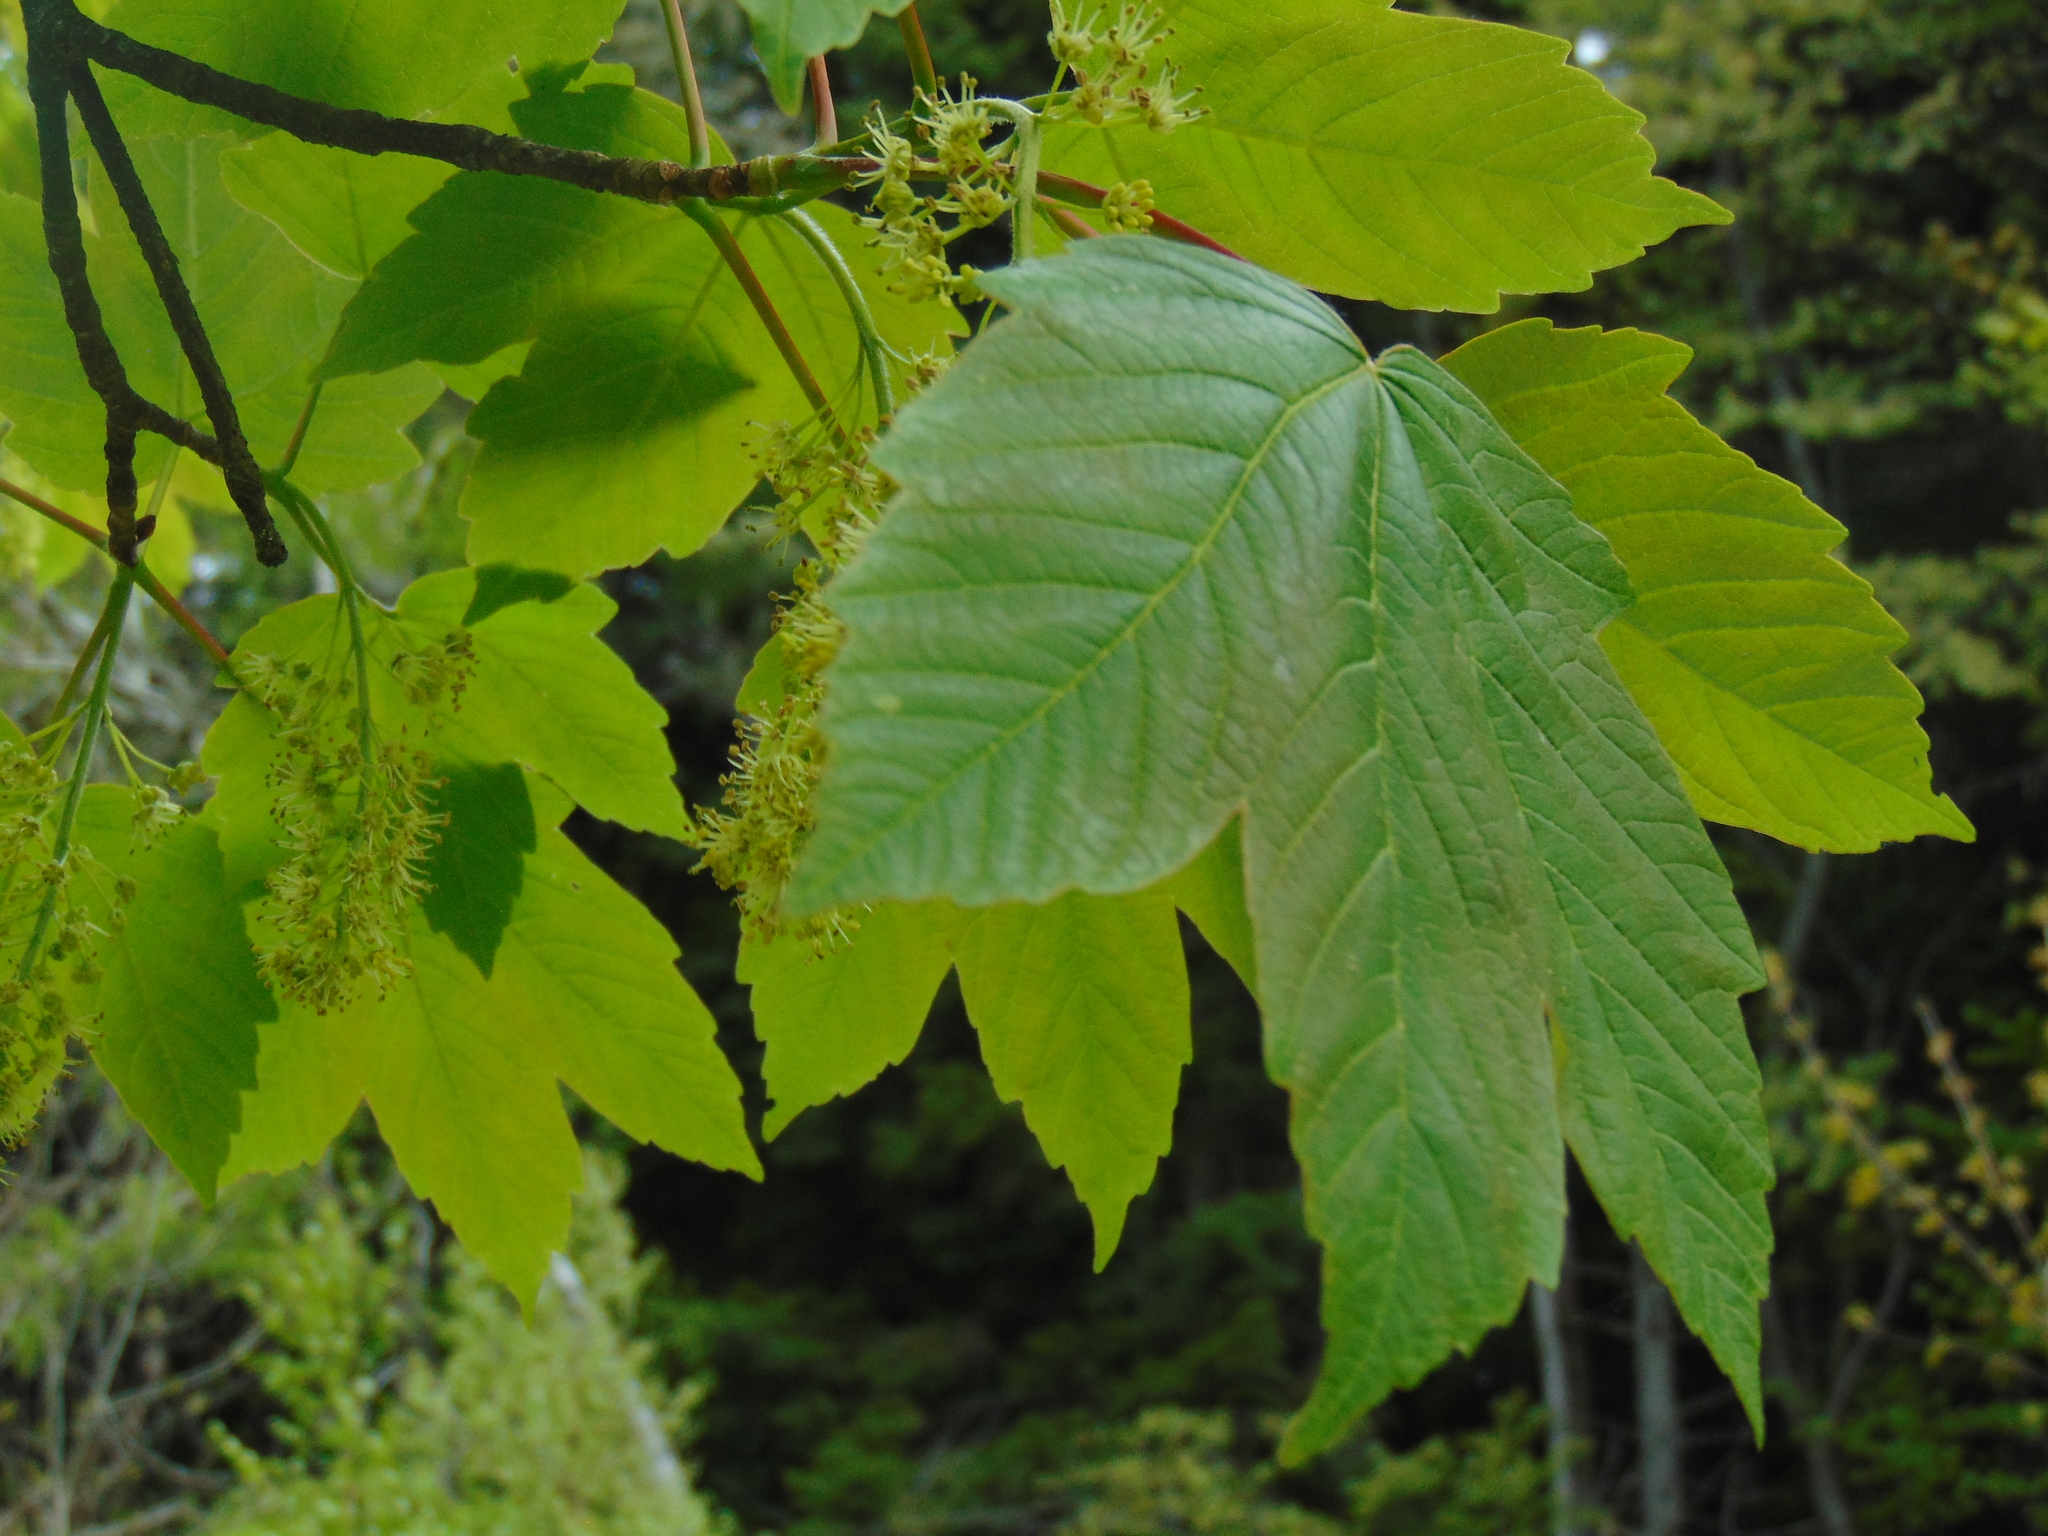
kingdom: Plantae
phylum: Tracheophyta
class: Magnoliopsida
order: Sapindales
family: Sapindaceae
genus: Acer
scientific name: Acer pseudoplatanus
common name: Sycamore
